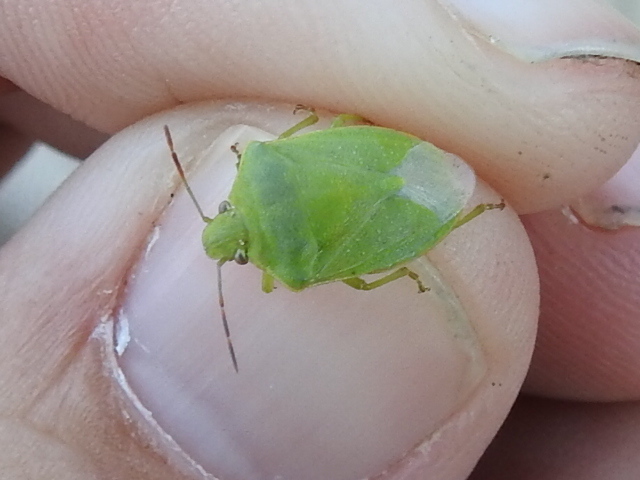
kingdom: Animalia
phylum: Arthropoda
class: Insecta
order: Hemiptera
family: Pentatomidae
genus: Thyanta
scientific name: Thyanta custator
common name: Stink bug
